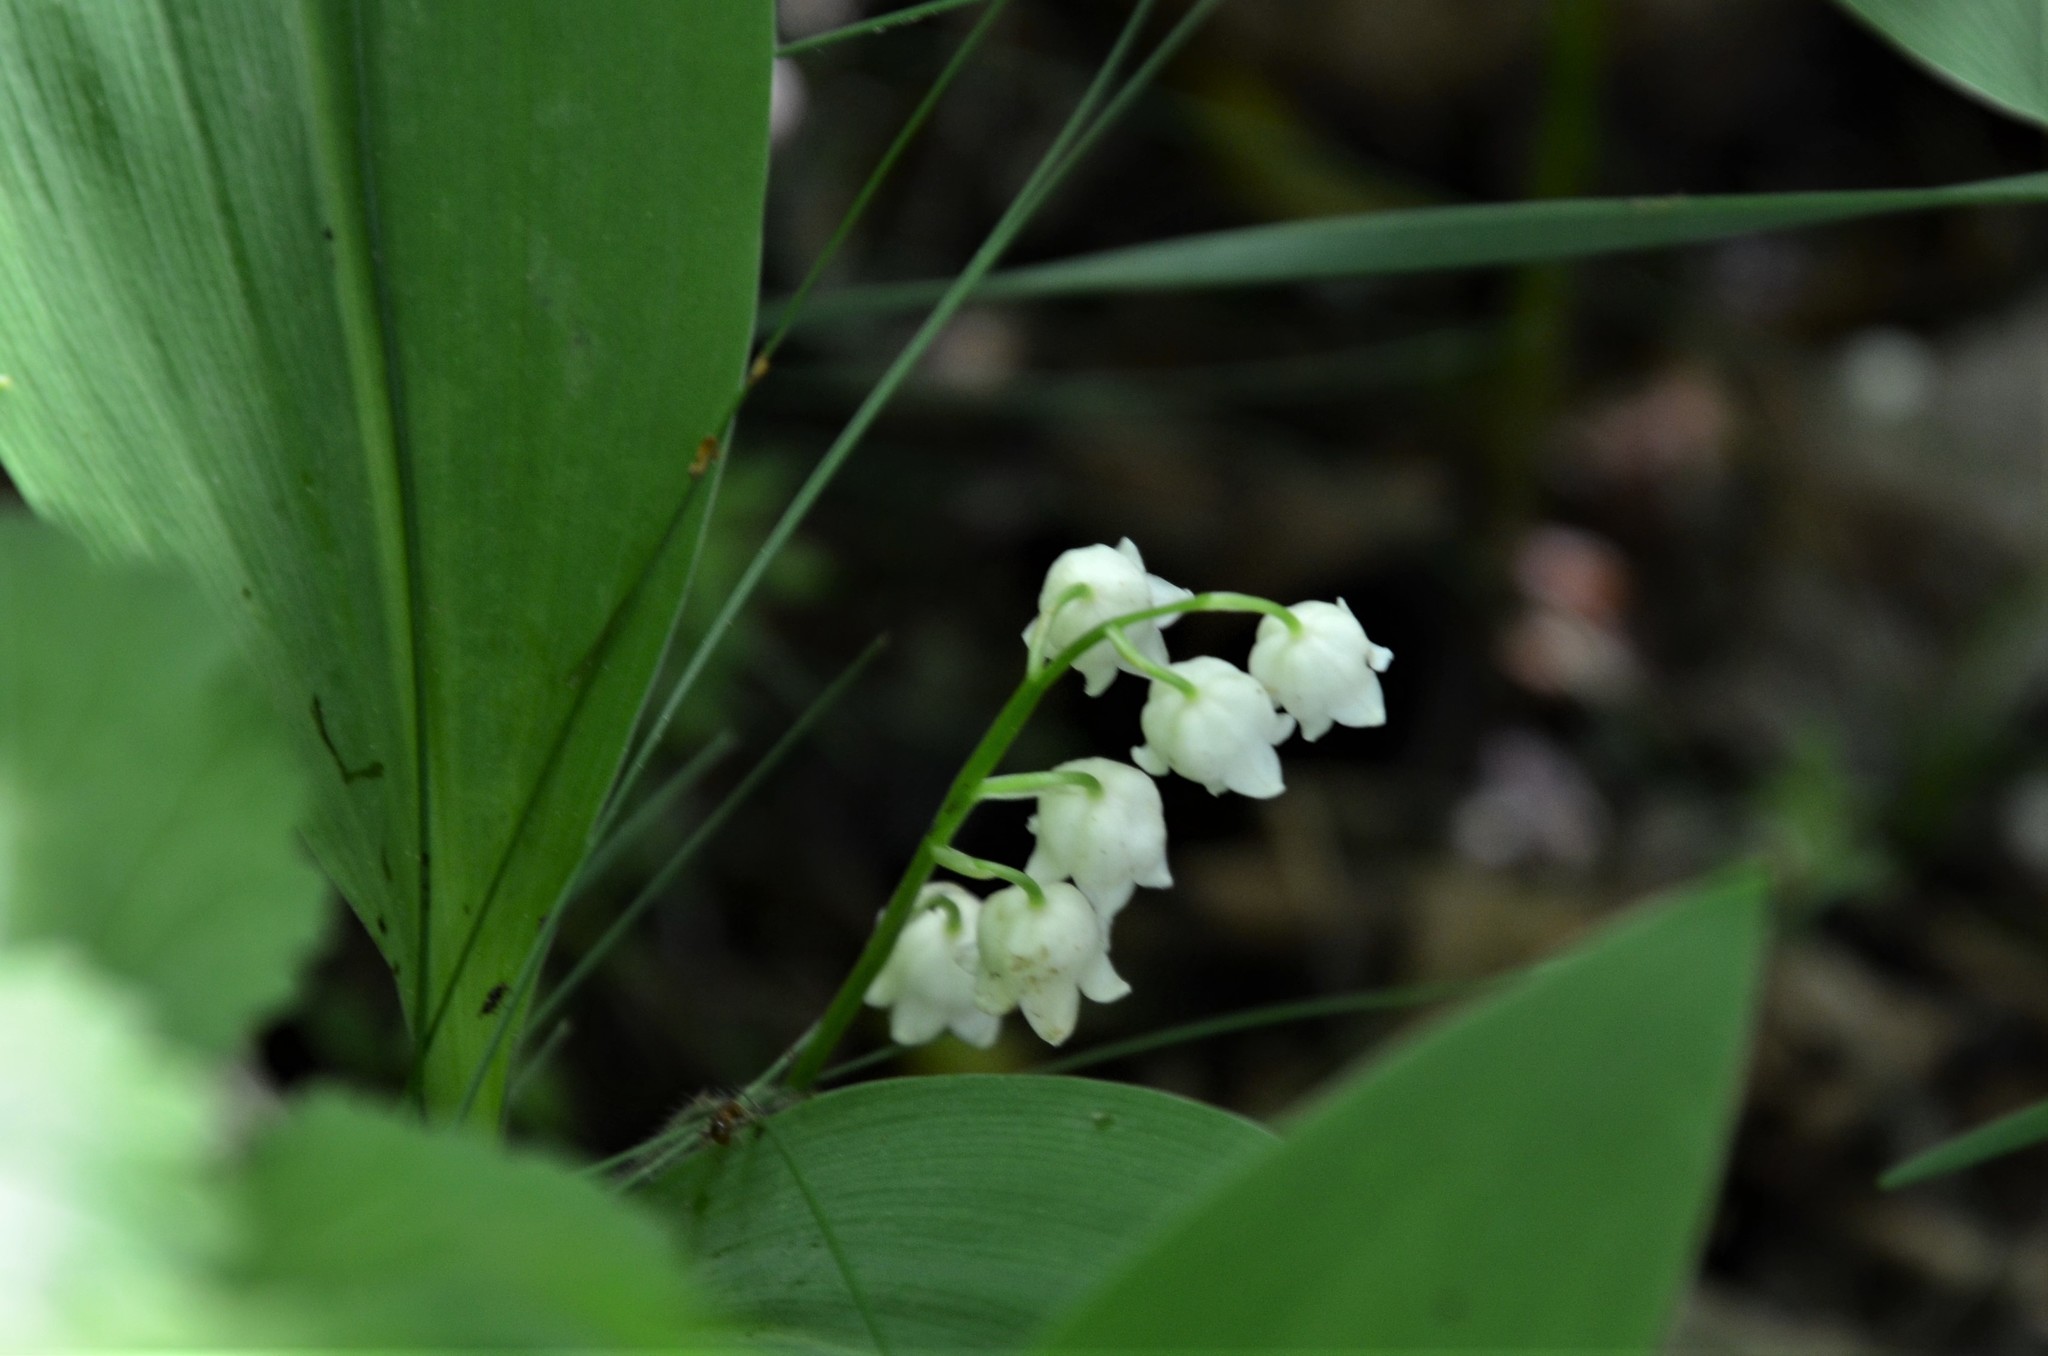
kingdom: Plantae
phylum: Tracheophyta
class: Liliopsida
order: Asparagales
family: Asparagaceae
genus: Convallaria
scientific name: Convallaria majalis
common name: Lily-of-the-valley
